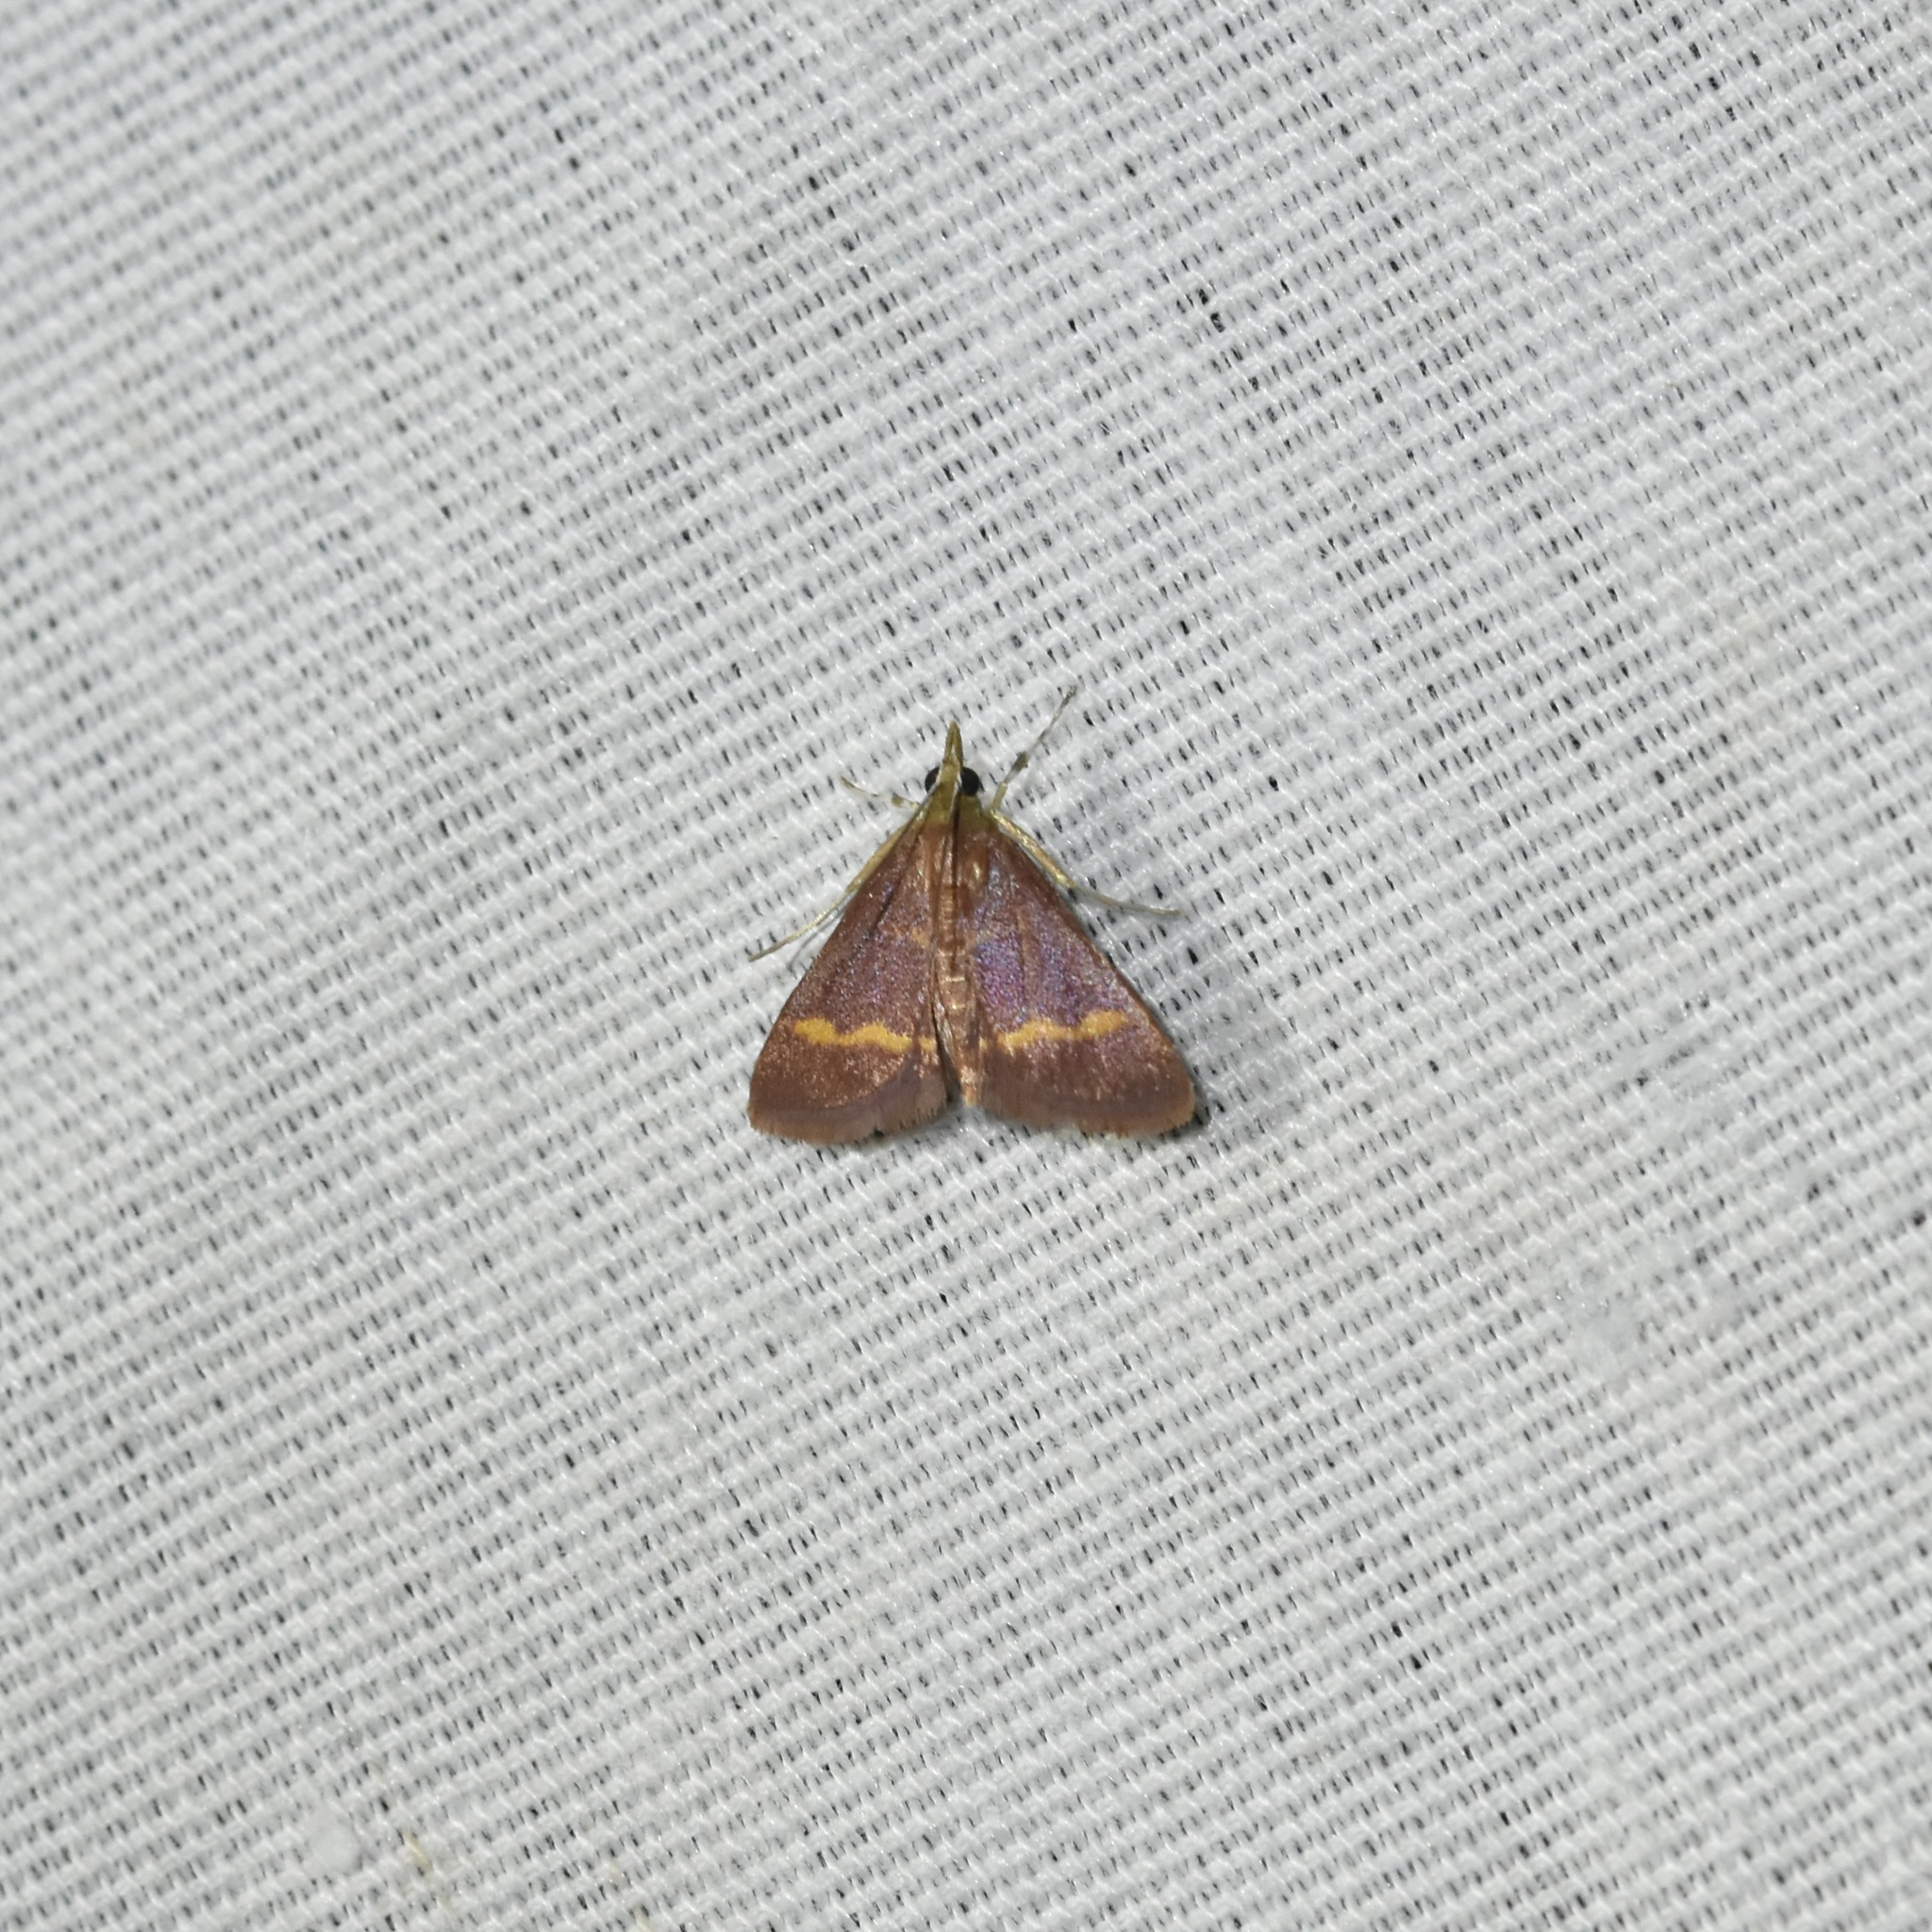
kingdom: Animalia
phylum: Arthropoda
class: Insecta
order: Lepidoptera
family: Crambidae
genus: Pyrausta
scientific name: Pyrausta pseuderosnealis
